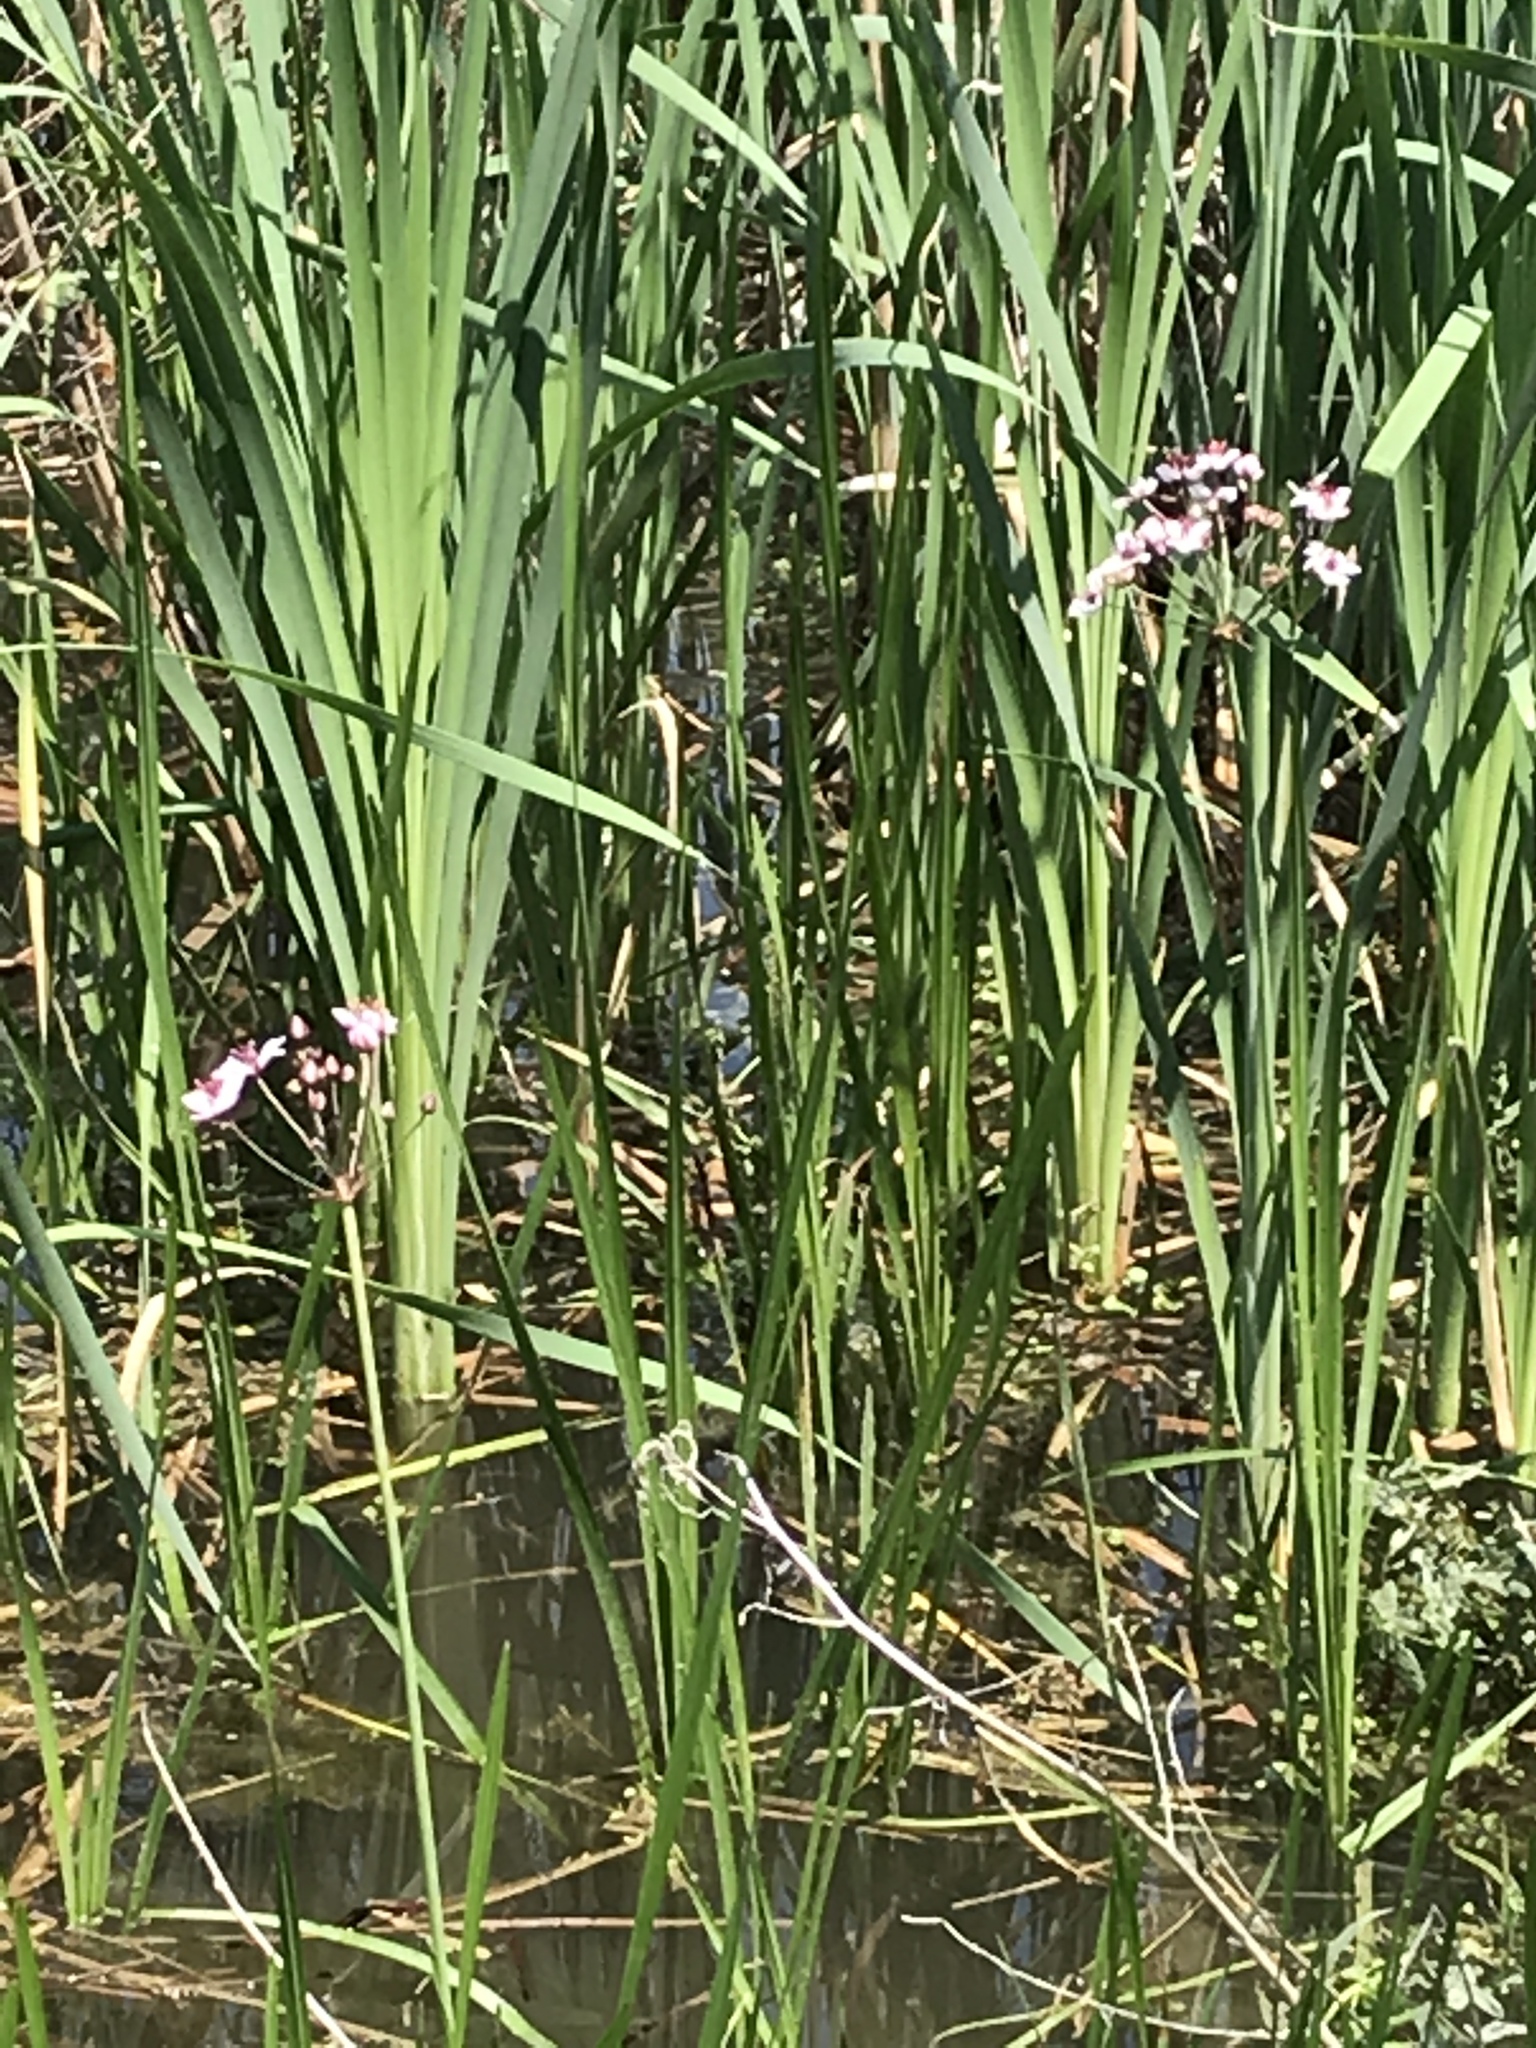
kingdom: Plantae
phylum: Tracheophyta
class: Liliopsida
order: Alismatales
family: Butomaceae
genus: Butomus
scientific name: Butomus umbellatus
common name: Flowering-rush
